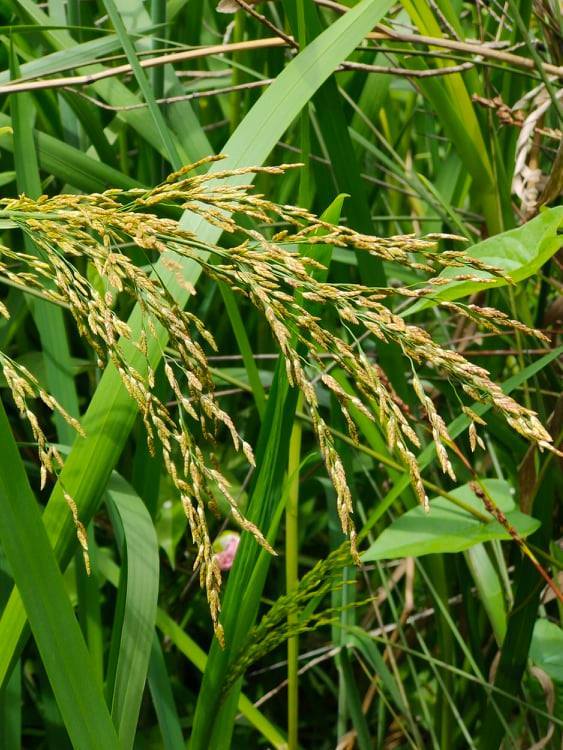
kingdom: Plantae
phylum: Tracheophyta
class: Liliopsida
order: Poales
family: Poaceae
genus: Glyceria
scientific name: Glyceria maxima
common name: Reed mannagrass
